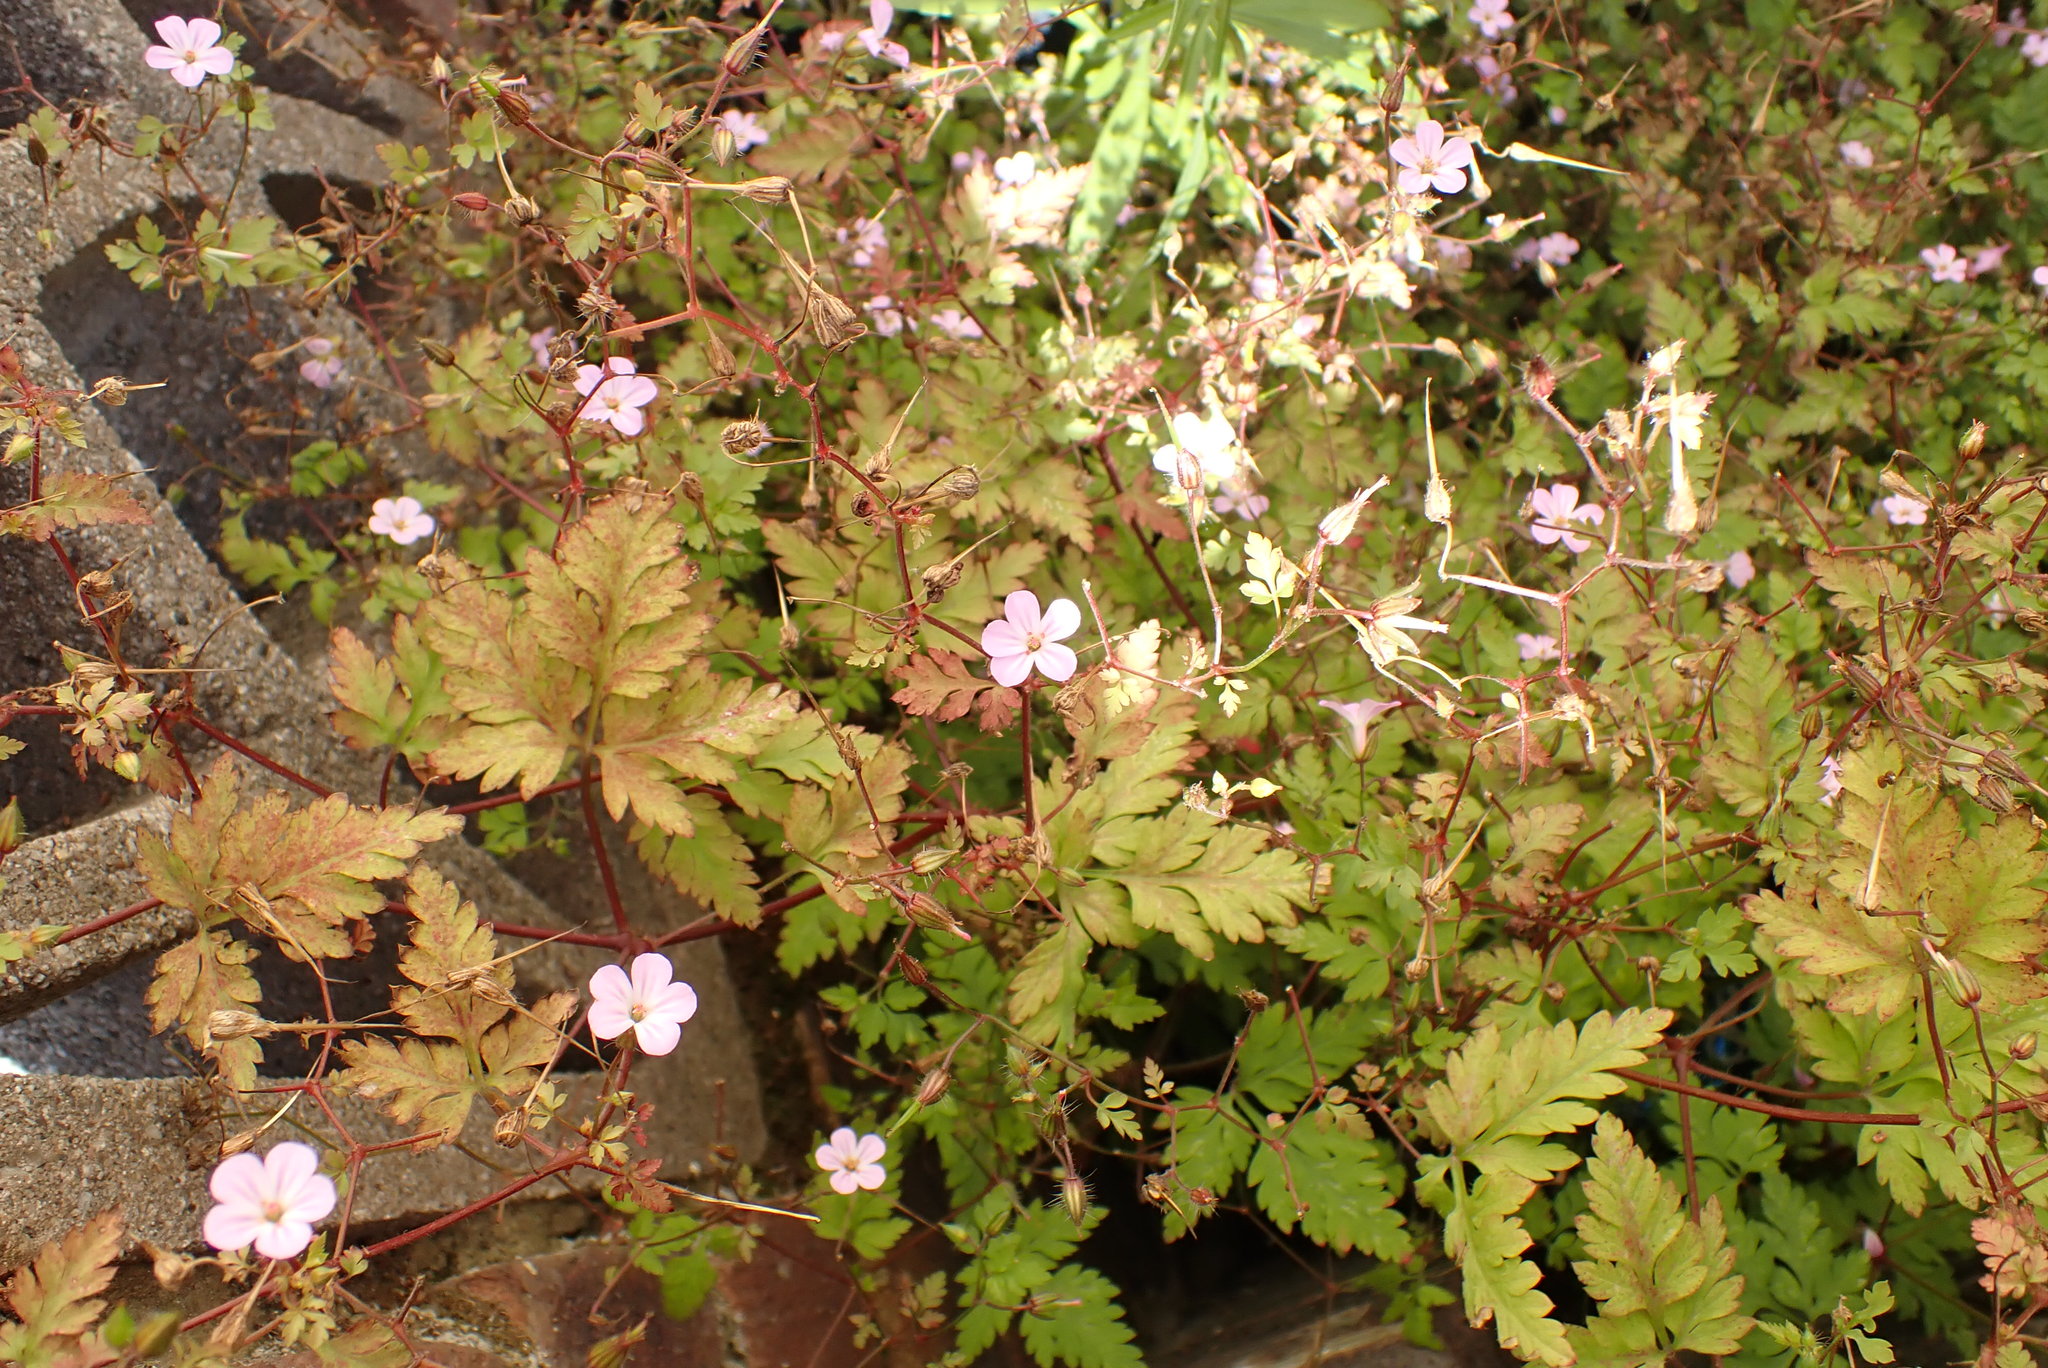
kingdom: Plantae
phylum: Tracheophyta
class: Magnoliopsida
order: Geraniales
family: Geraniaceae
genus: Geranium
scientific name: Geranium robertianum
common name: Herb-robert
